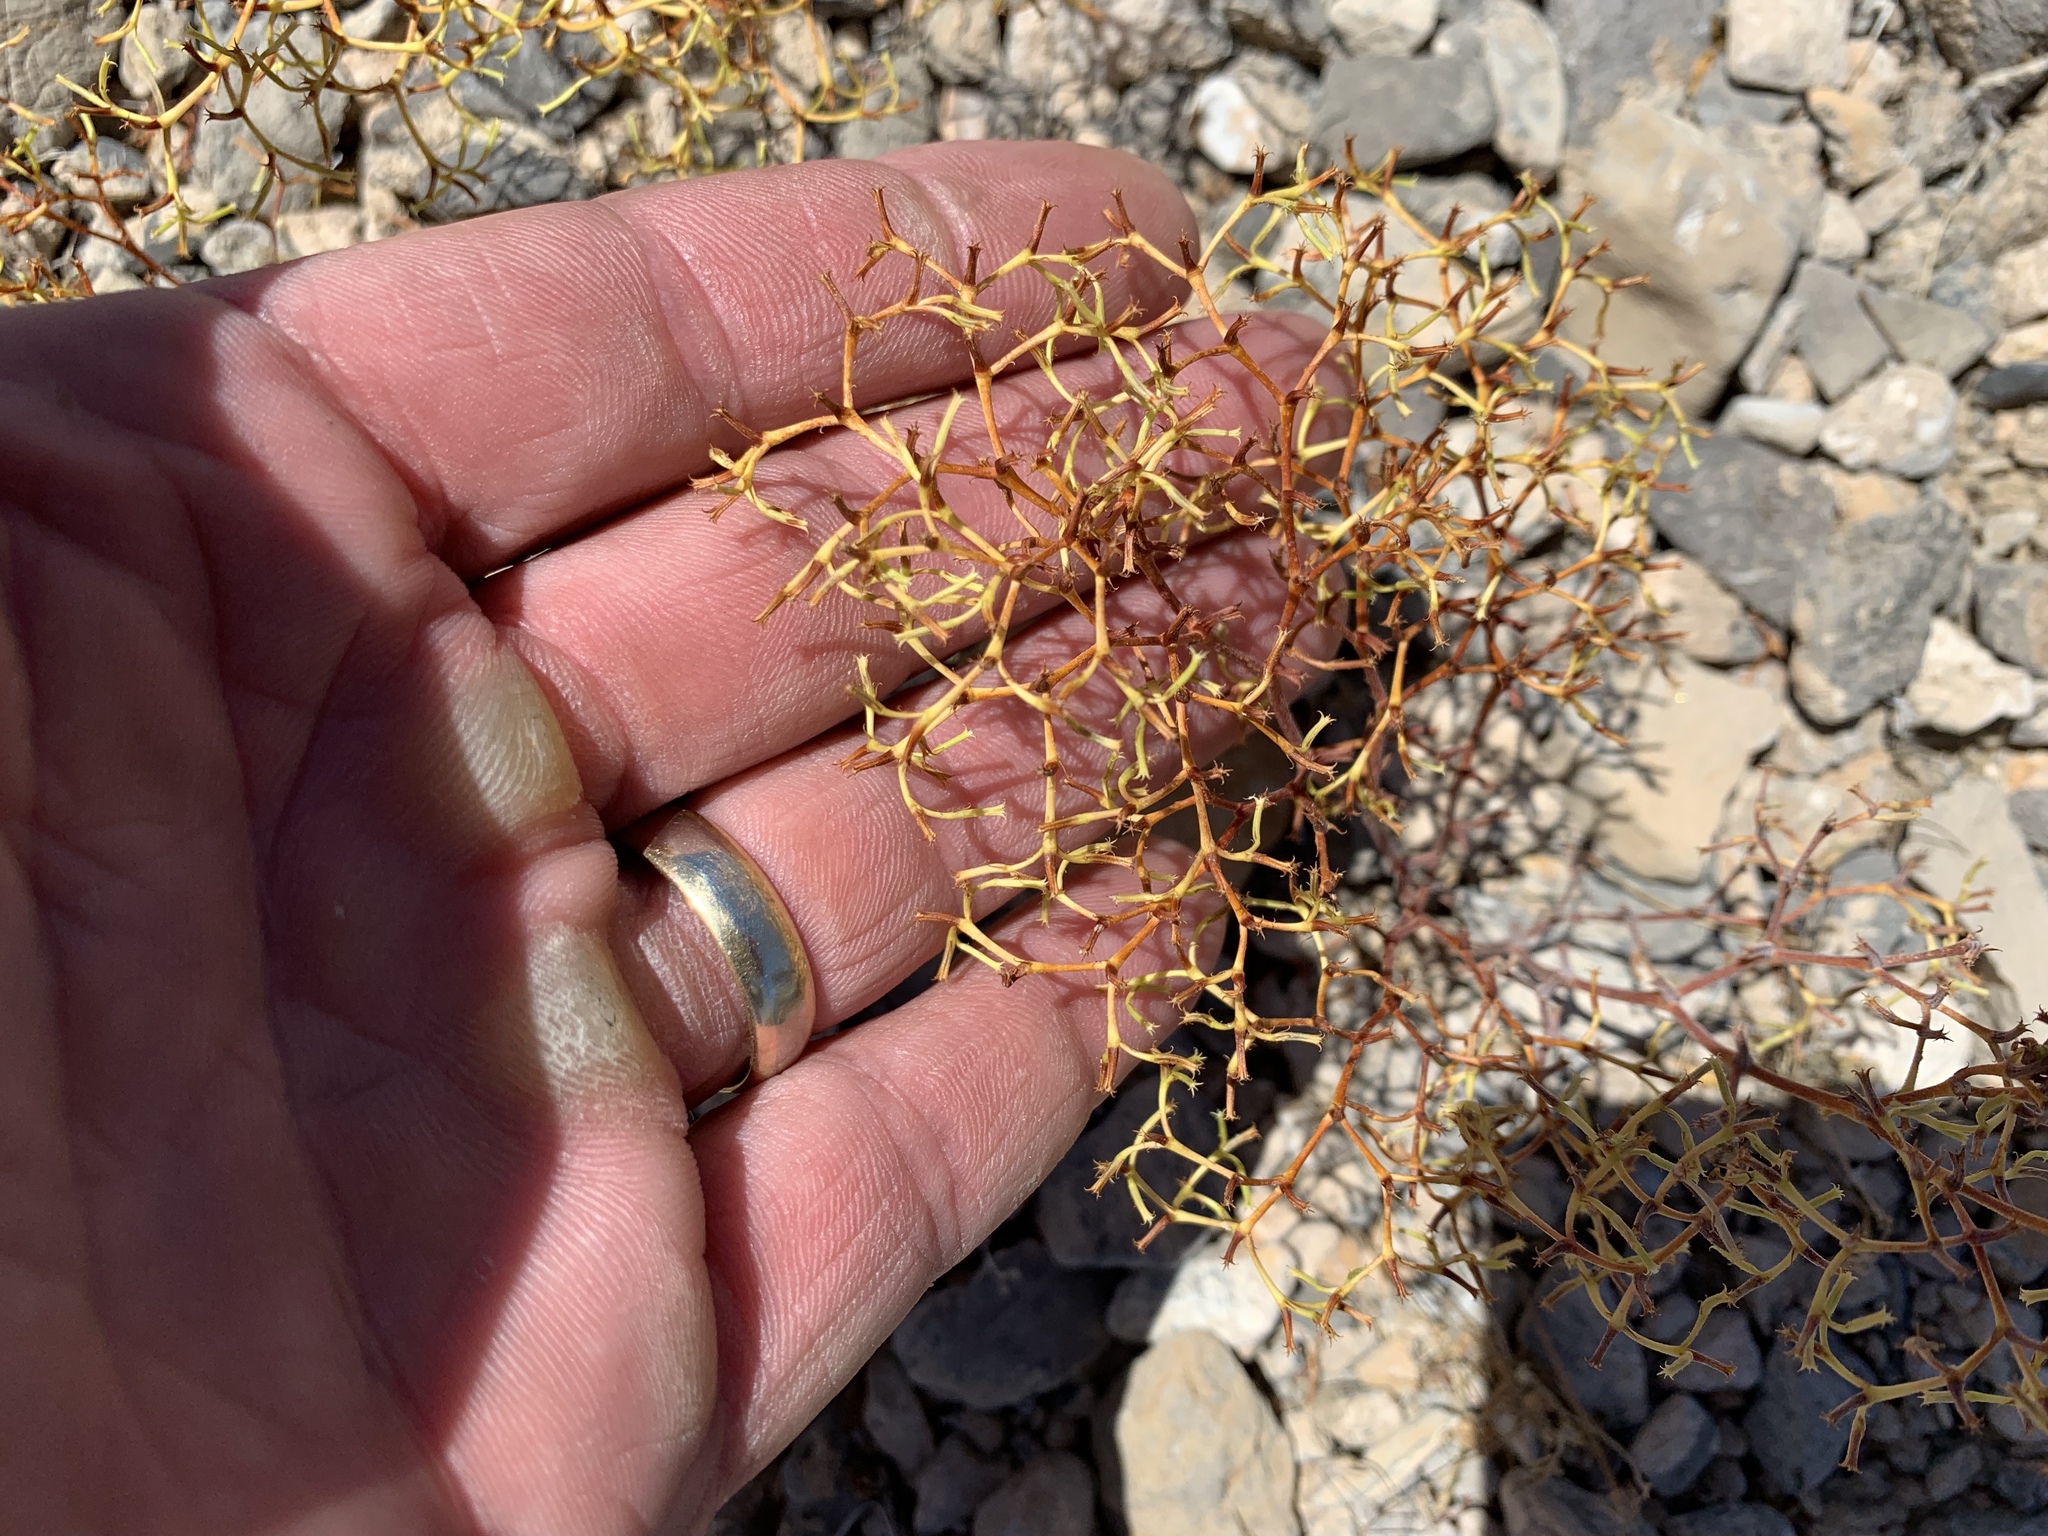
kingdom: Plantae
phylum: Tracheophyta
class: Magnoliopsida
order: Caryophyllales
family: Polygonaceae
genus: Chorizanthe
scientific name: Chorizanthe brevicornu
